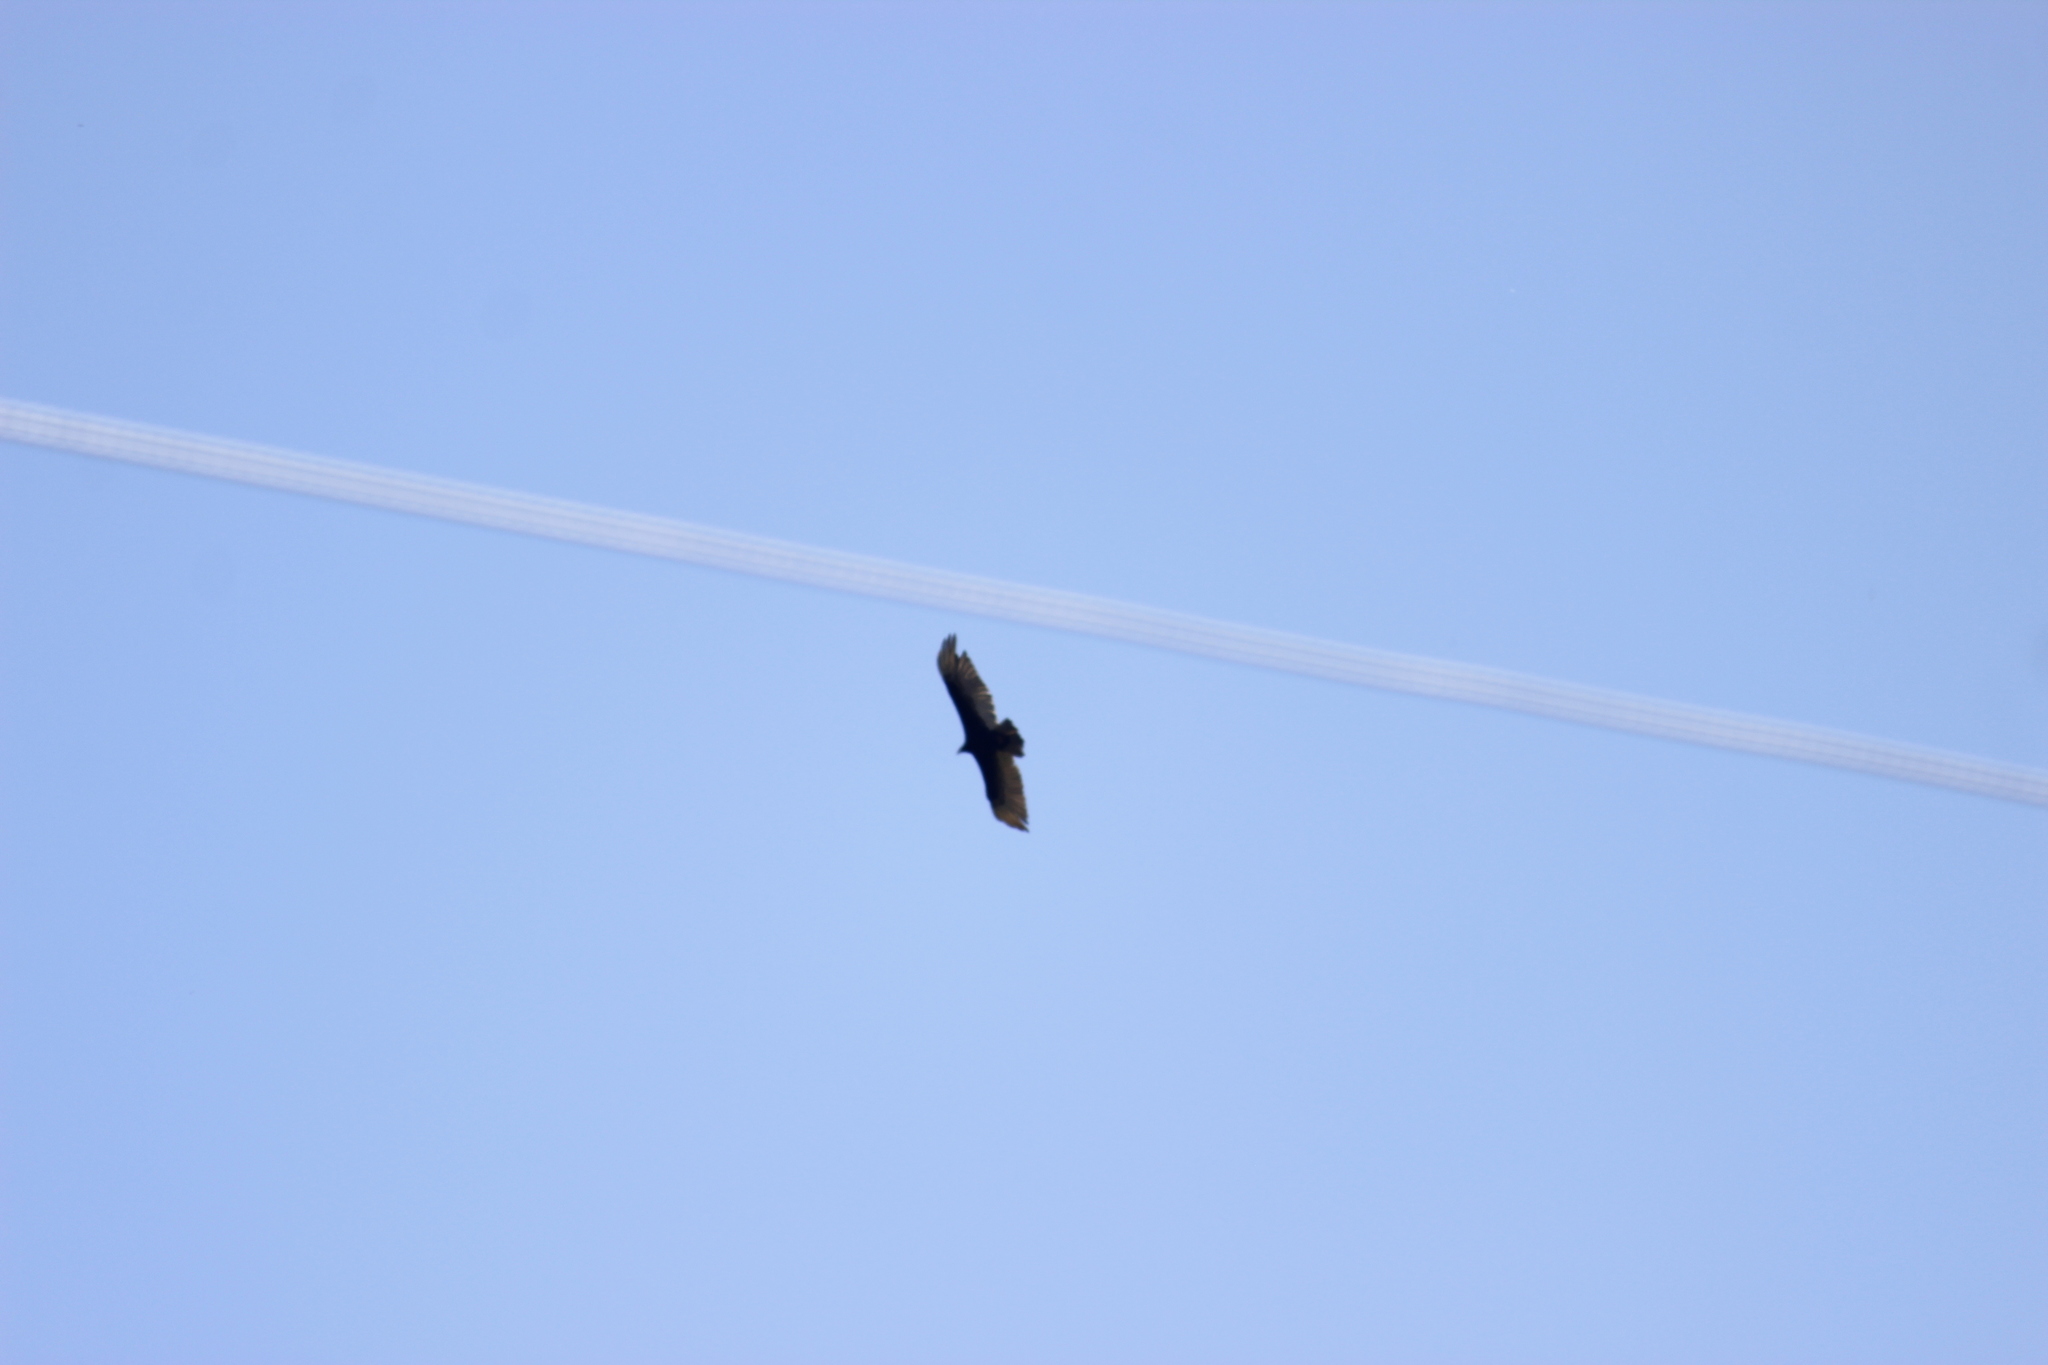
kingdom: Animalia
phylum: Chordata
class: Aves
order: Accipitriformes
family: Cathartidae
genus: Cathartes
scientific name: Cathartes aura
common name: Turkey vulture
